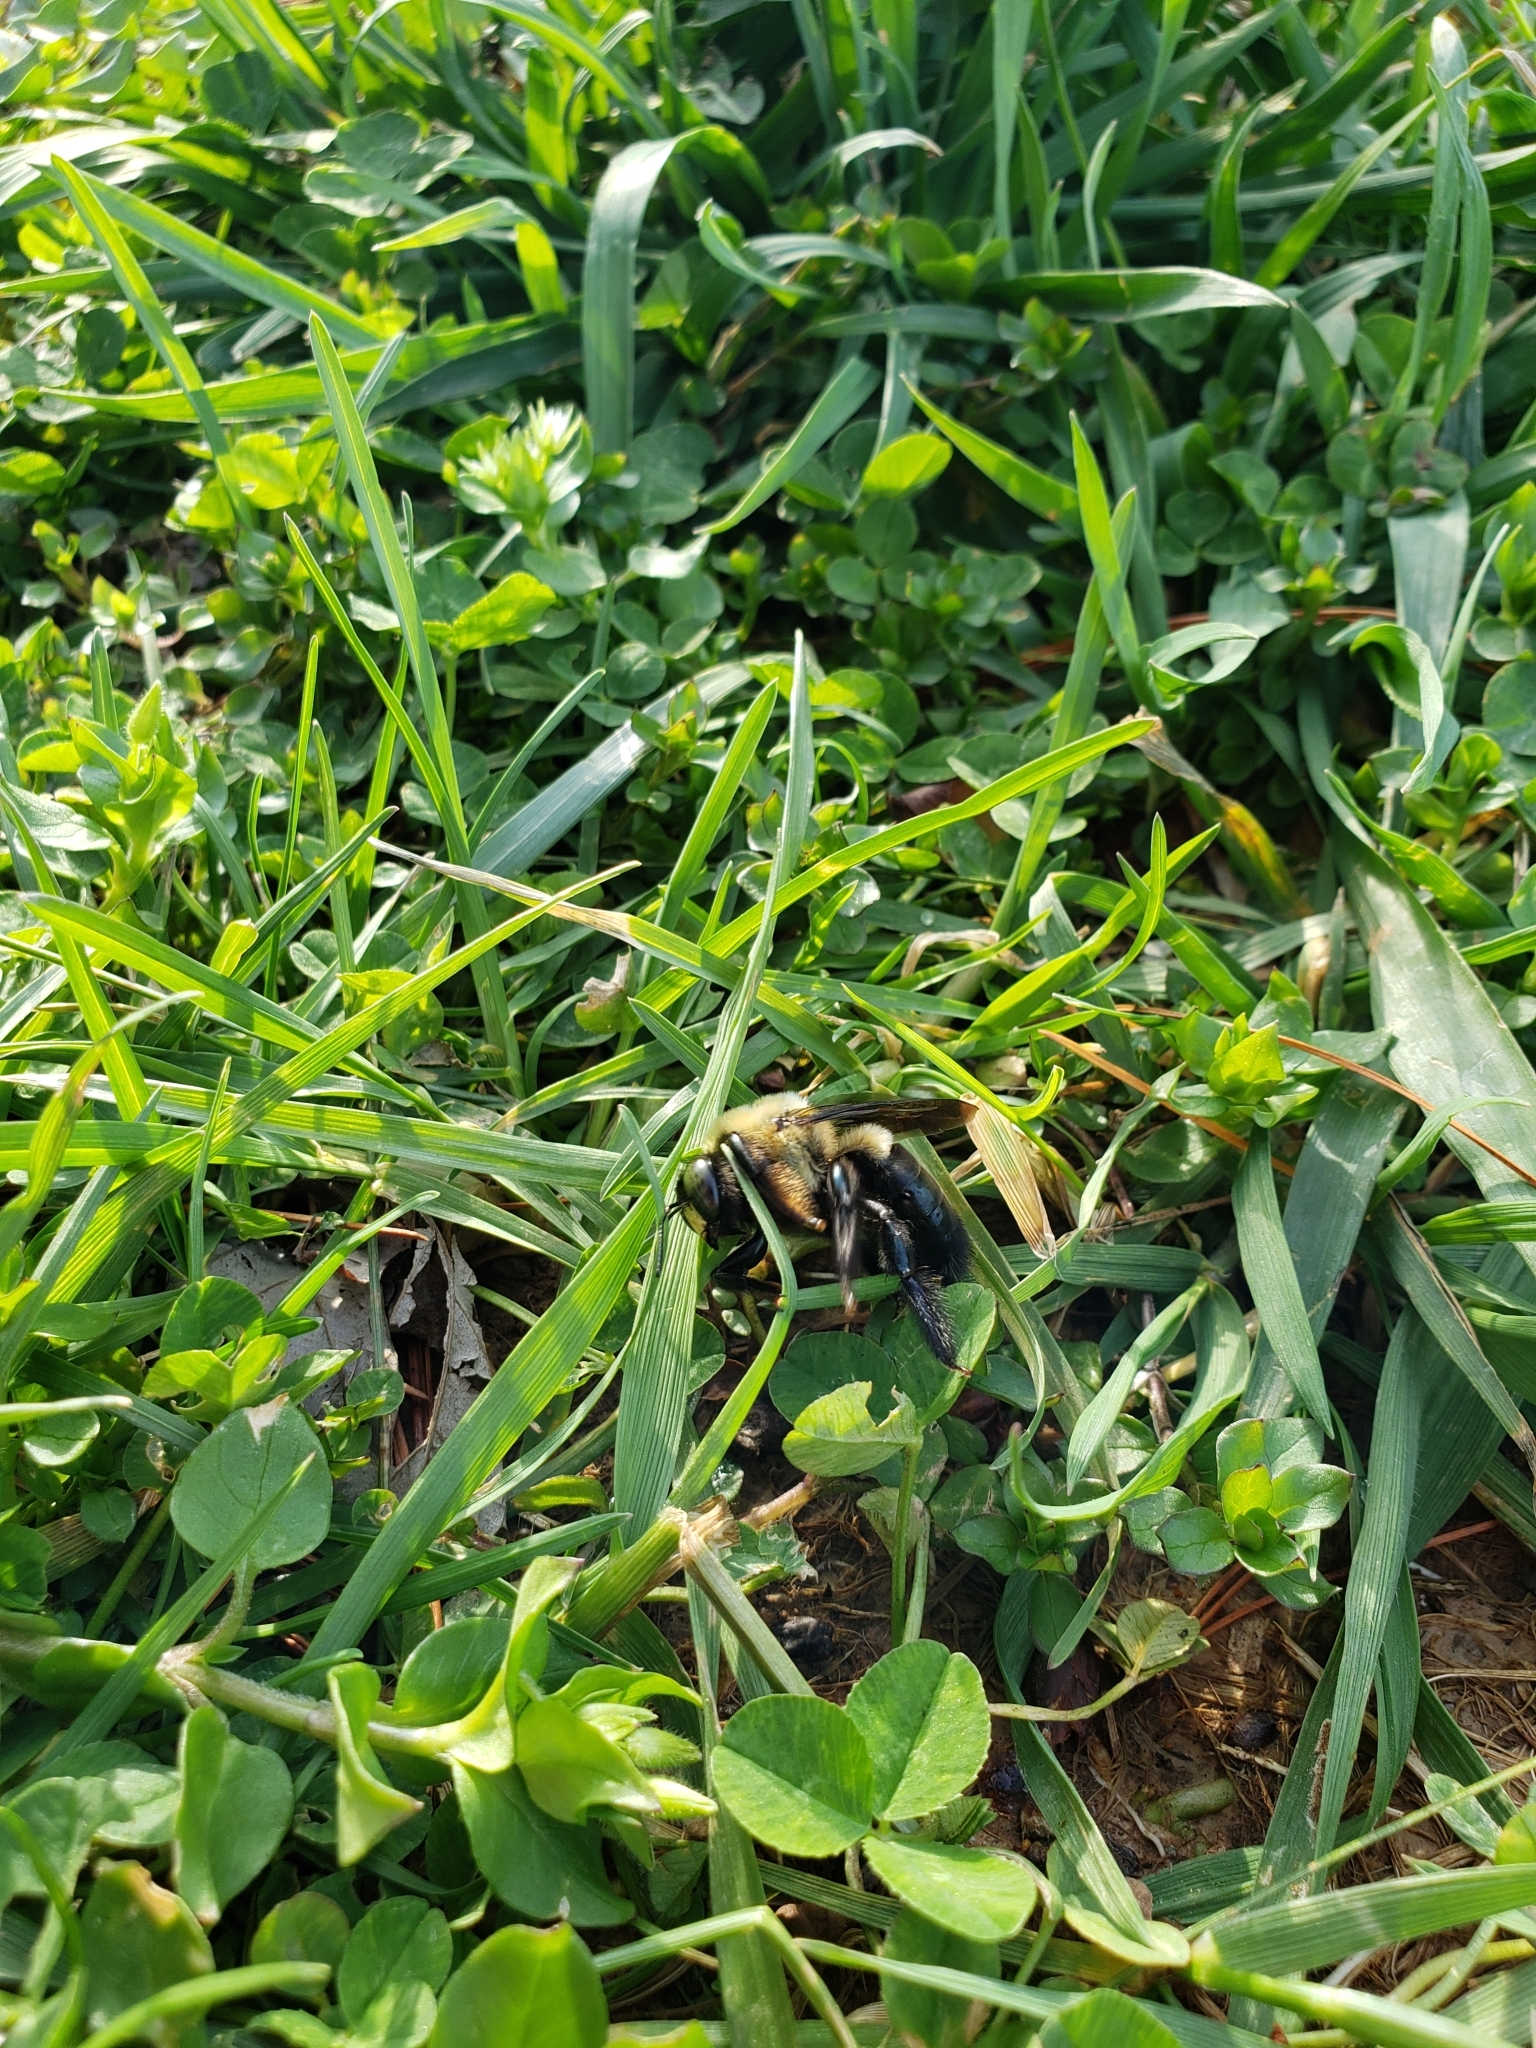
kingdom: Animalia
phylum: Arthropoda
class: Insecta
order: Hymenoptera
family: Apidae
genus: Xylocopa
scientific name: Xylocopa virginica
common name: Carpenter bee
